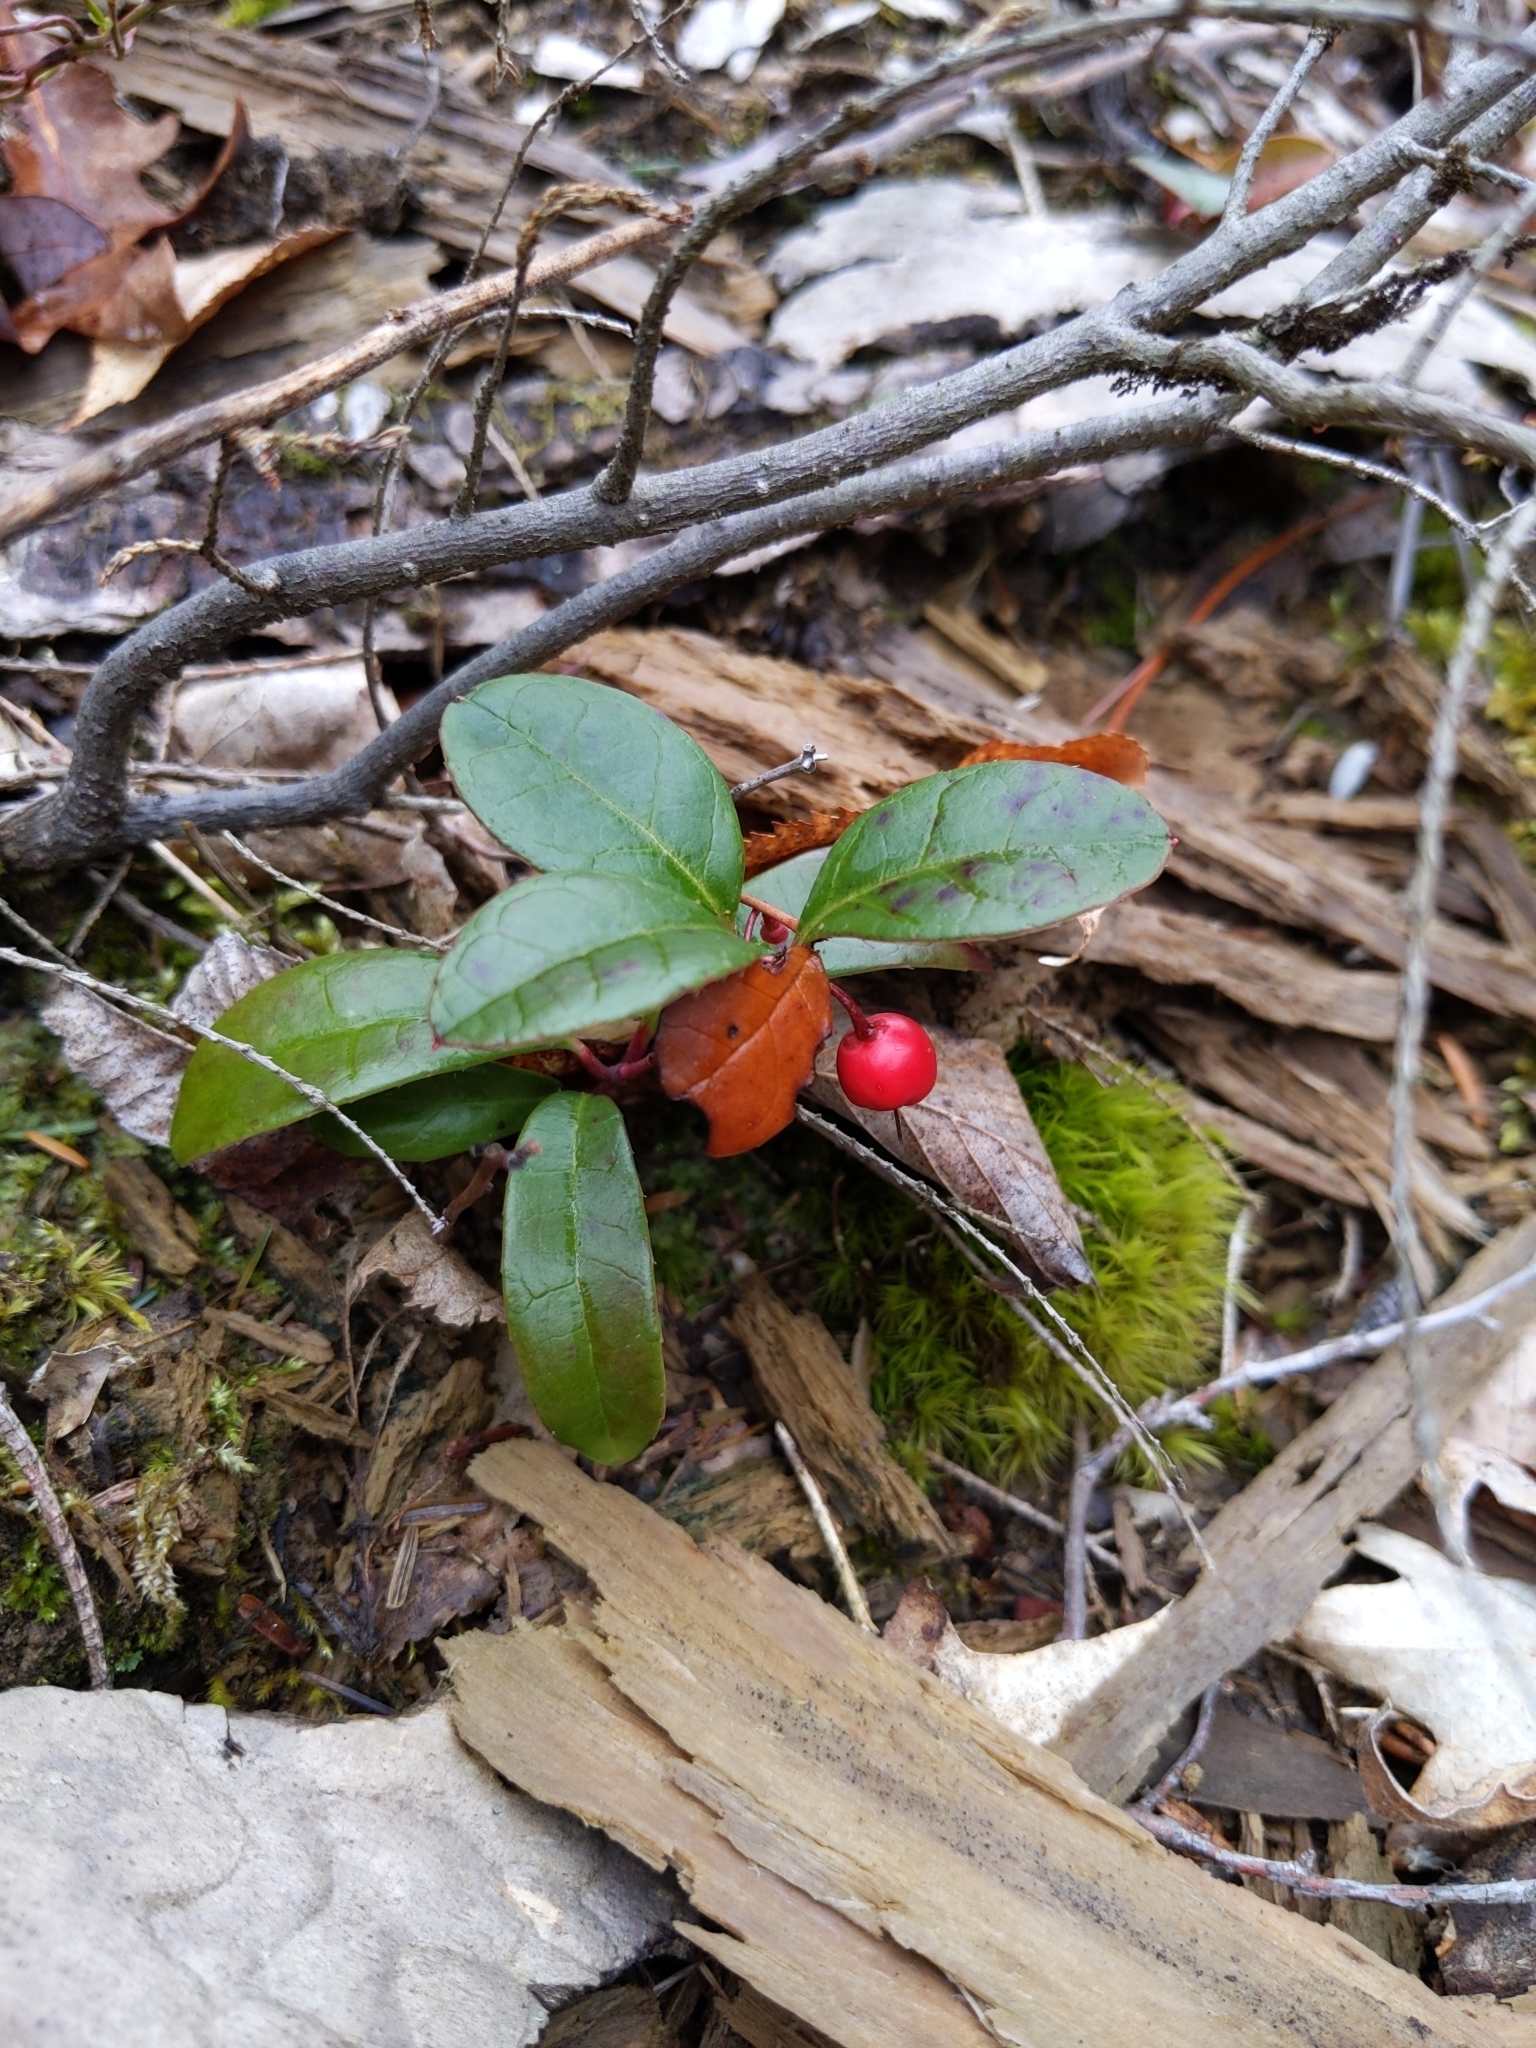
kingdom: Plantae
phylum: Tracheophyta
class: Magnoliopsida
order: Ericales
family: Ericaceae
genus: Gaultheria
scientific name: Gaultheria procumbens
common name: Checkerberry
